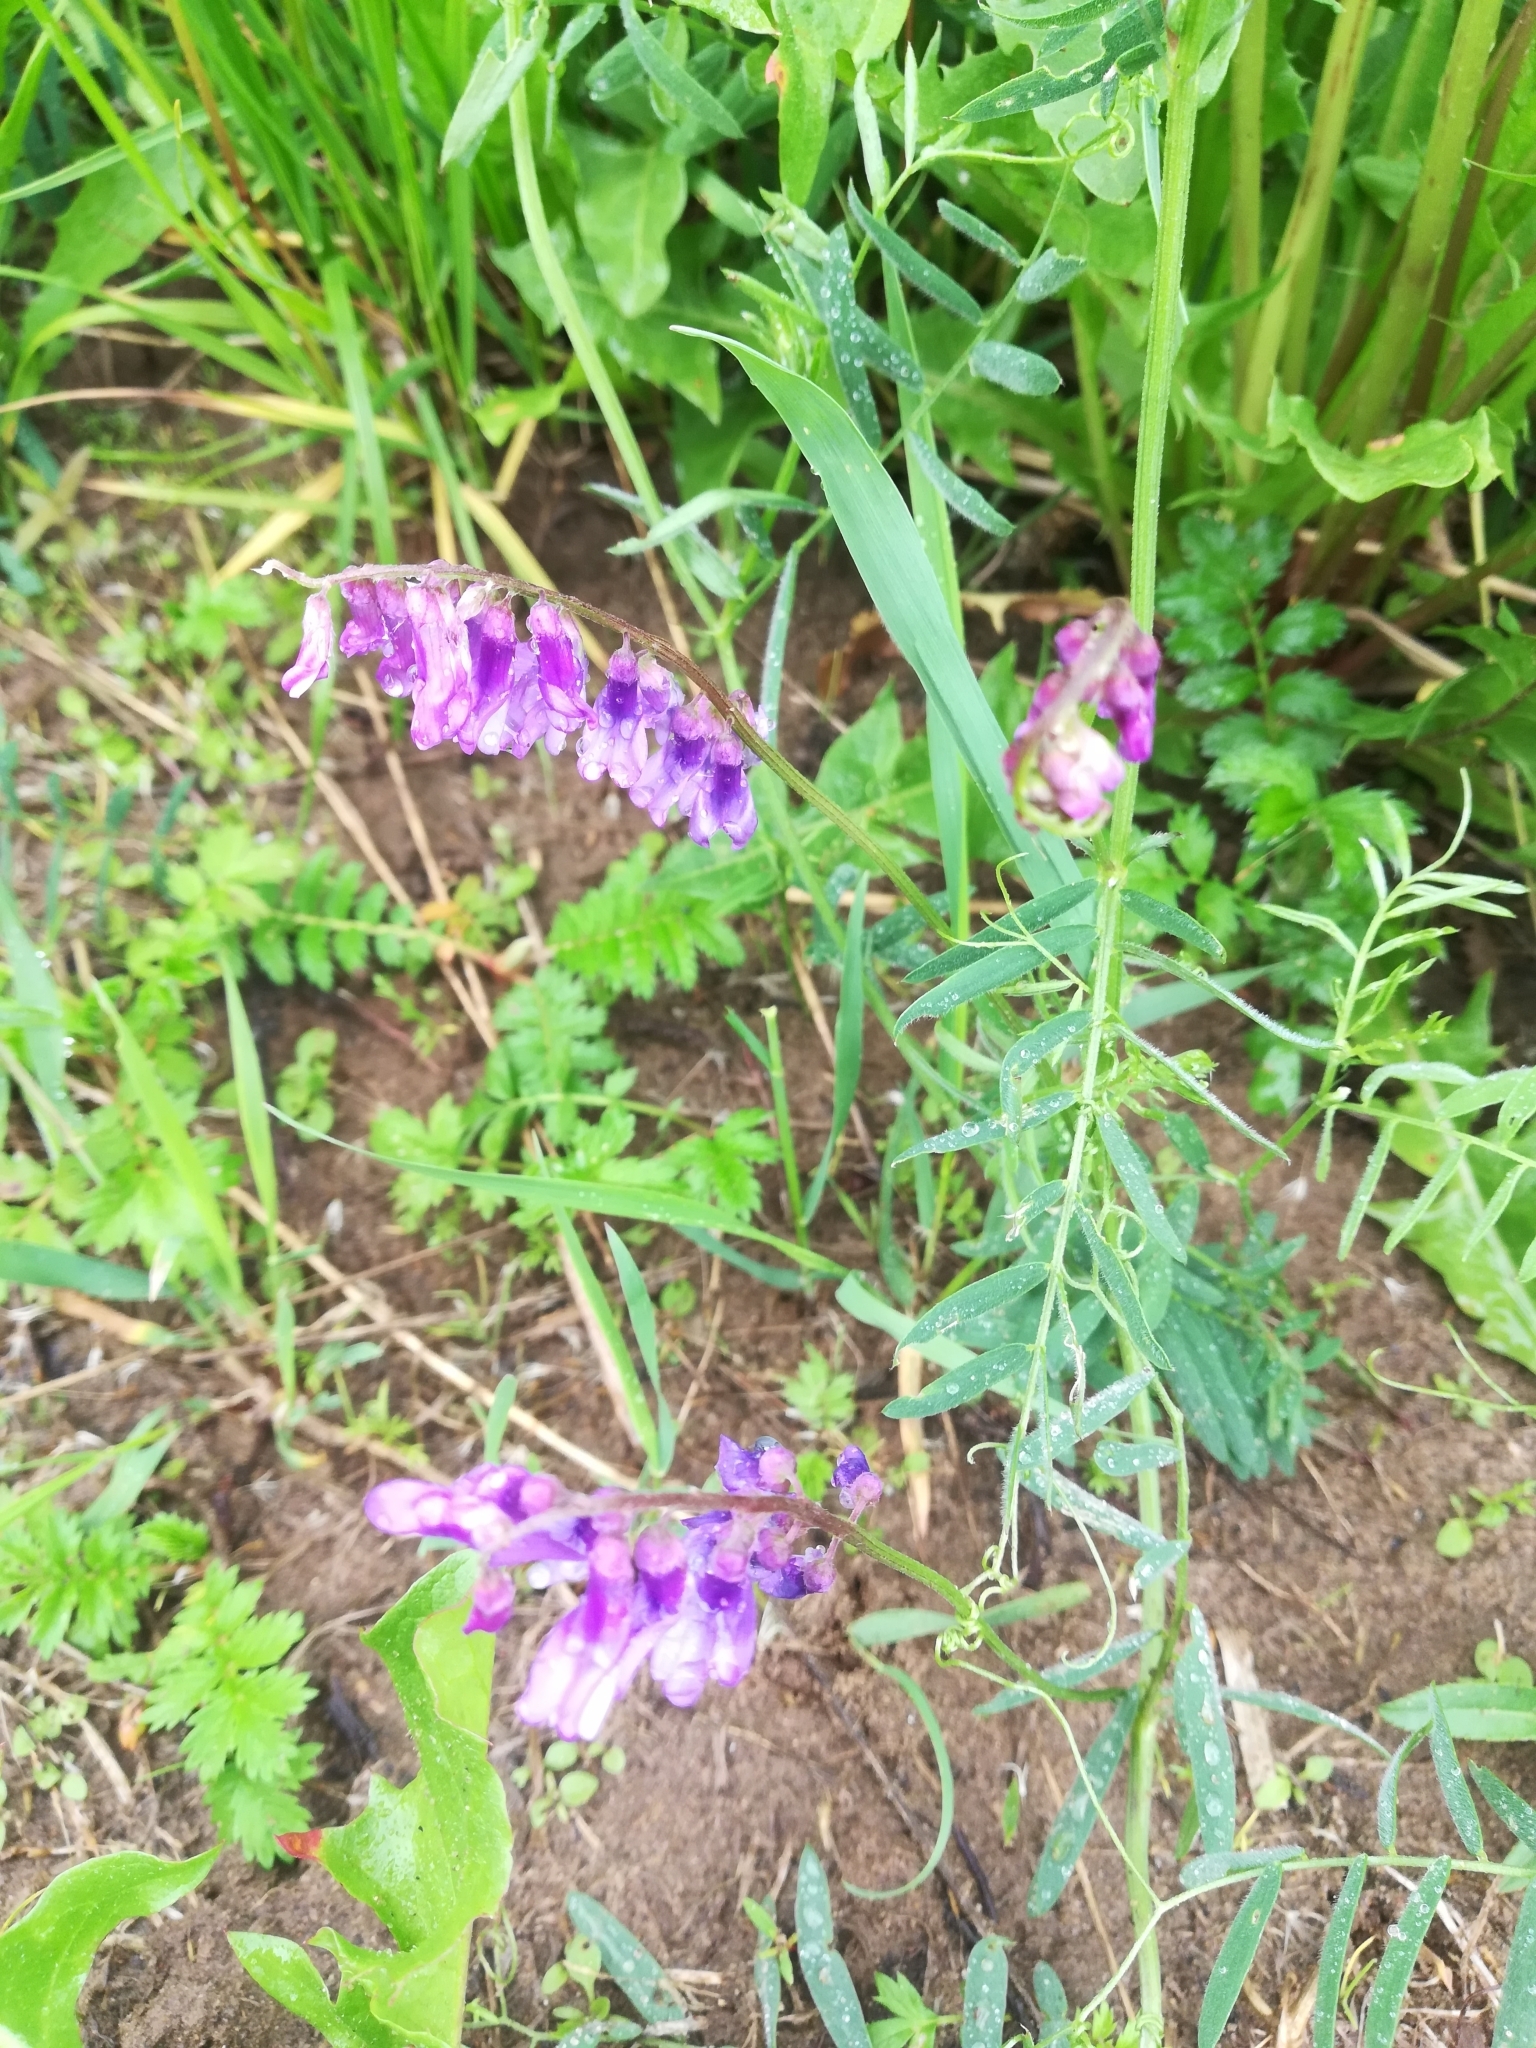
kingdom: Plantae
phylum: Tracheophyta
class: Magnoliopsida
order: Fabales
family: Fabaceae
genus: Vicia
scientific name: Vicia cracca
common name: Bird vetch
